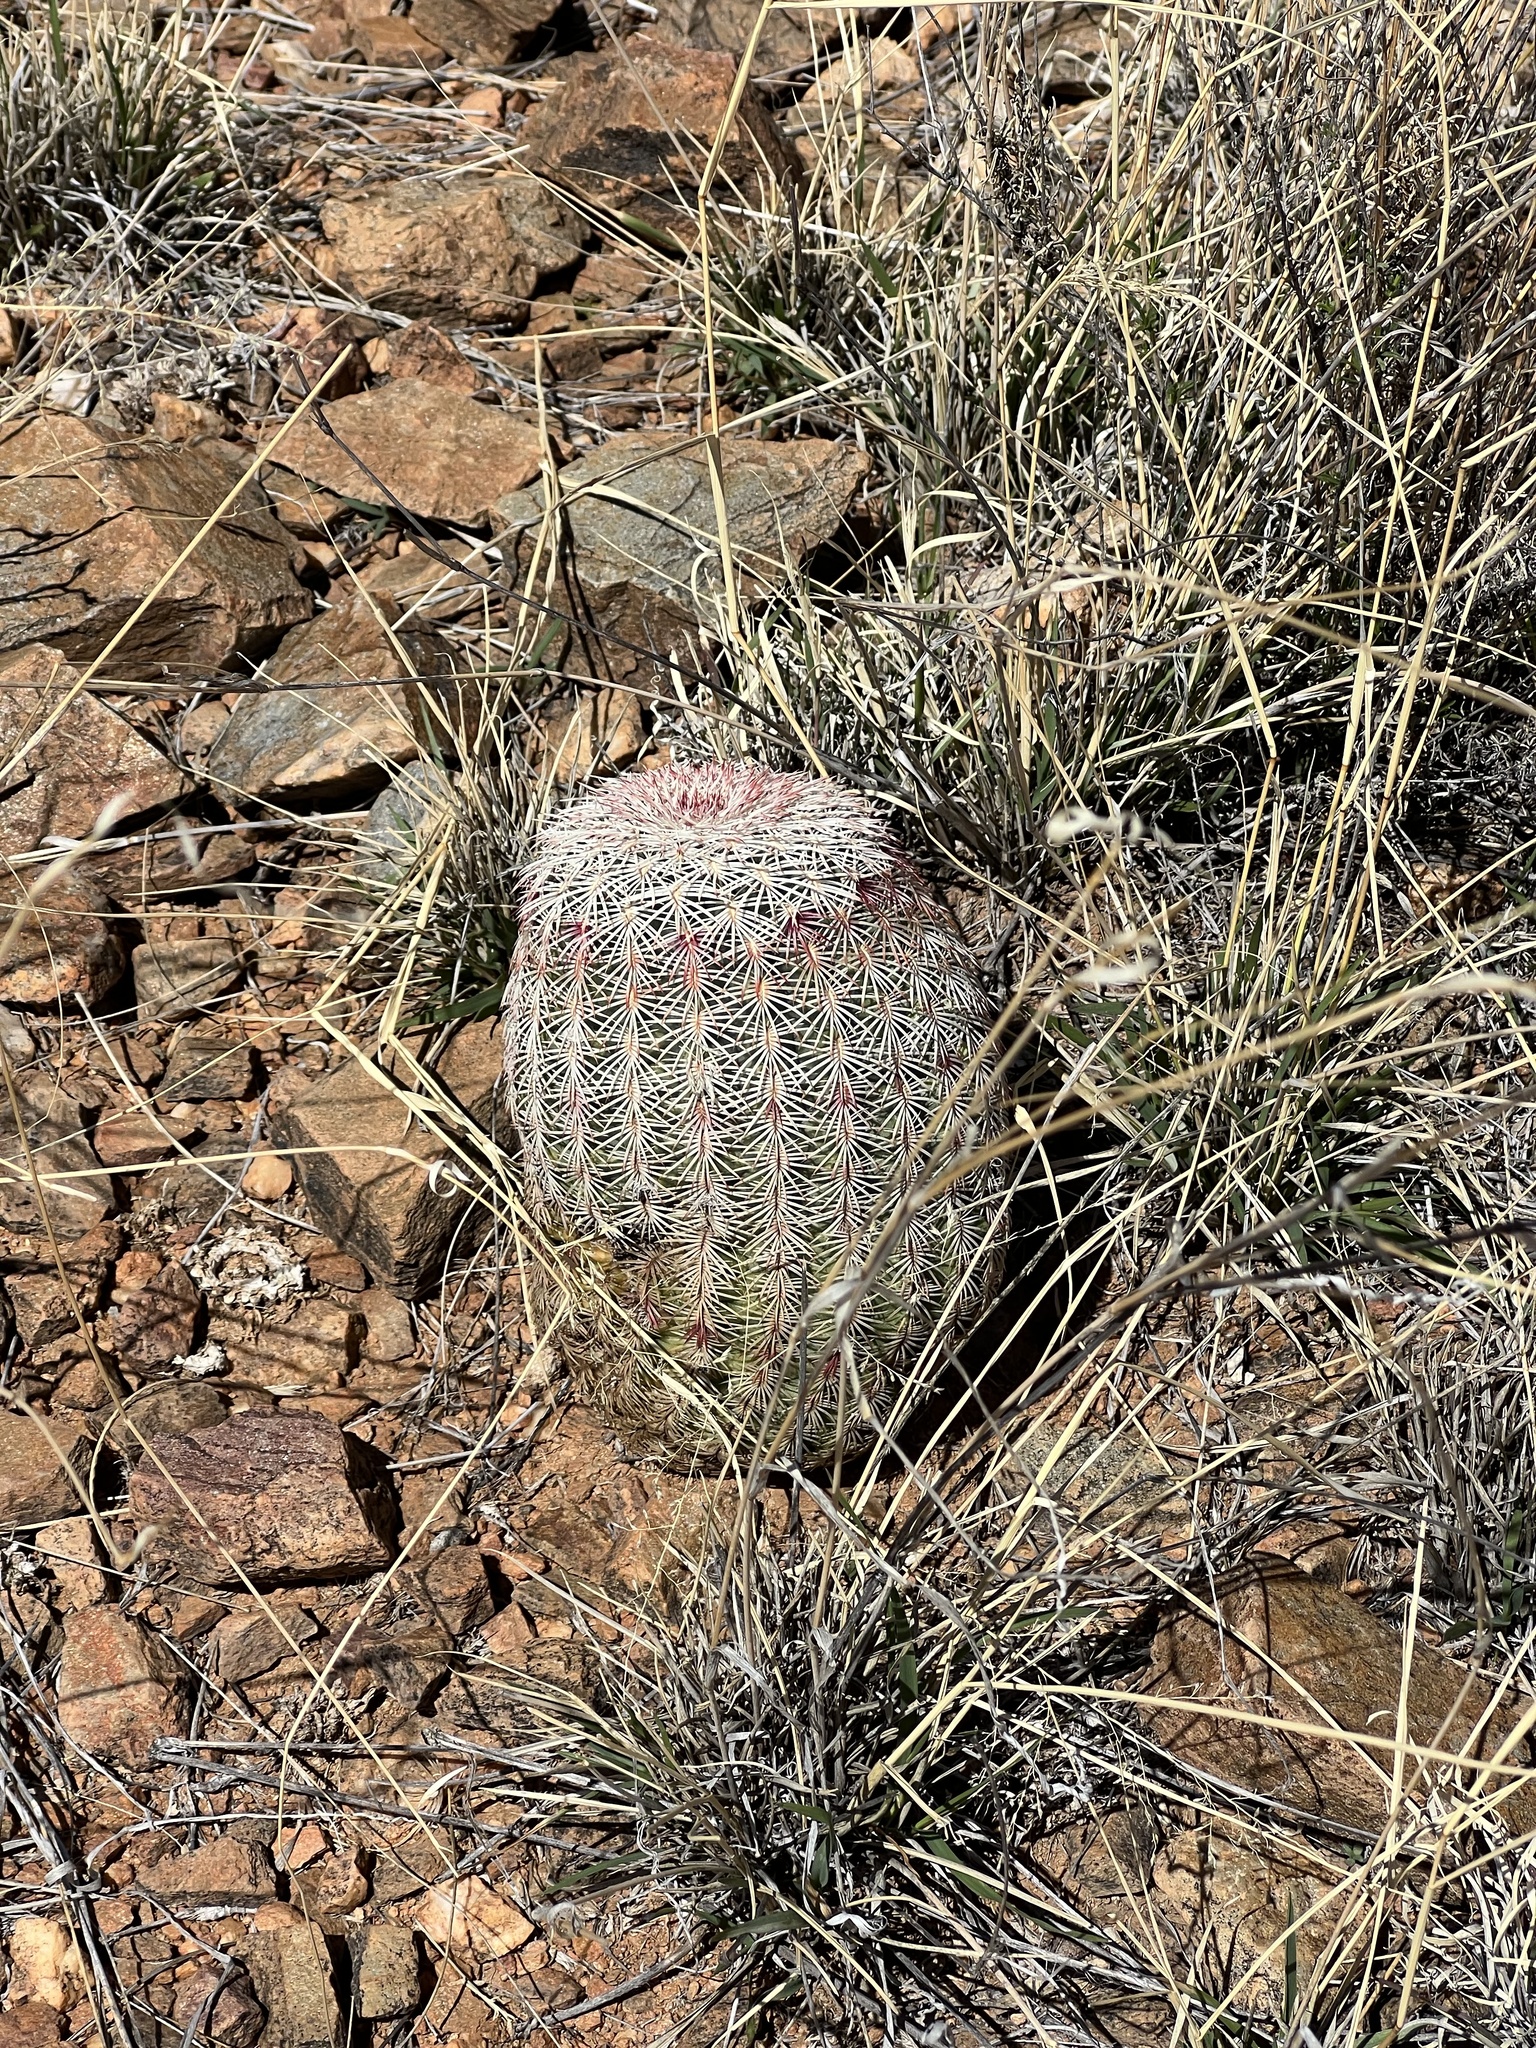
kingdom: Plantae
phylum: Tracheophyta
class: Magnoliopsida
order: Caryophyllales
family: Cactaceae
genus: Echinocereus
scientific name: Echinocereus rigidissimus
